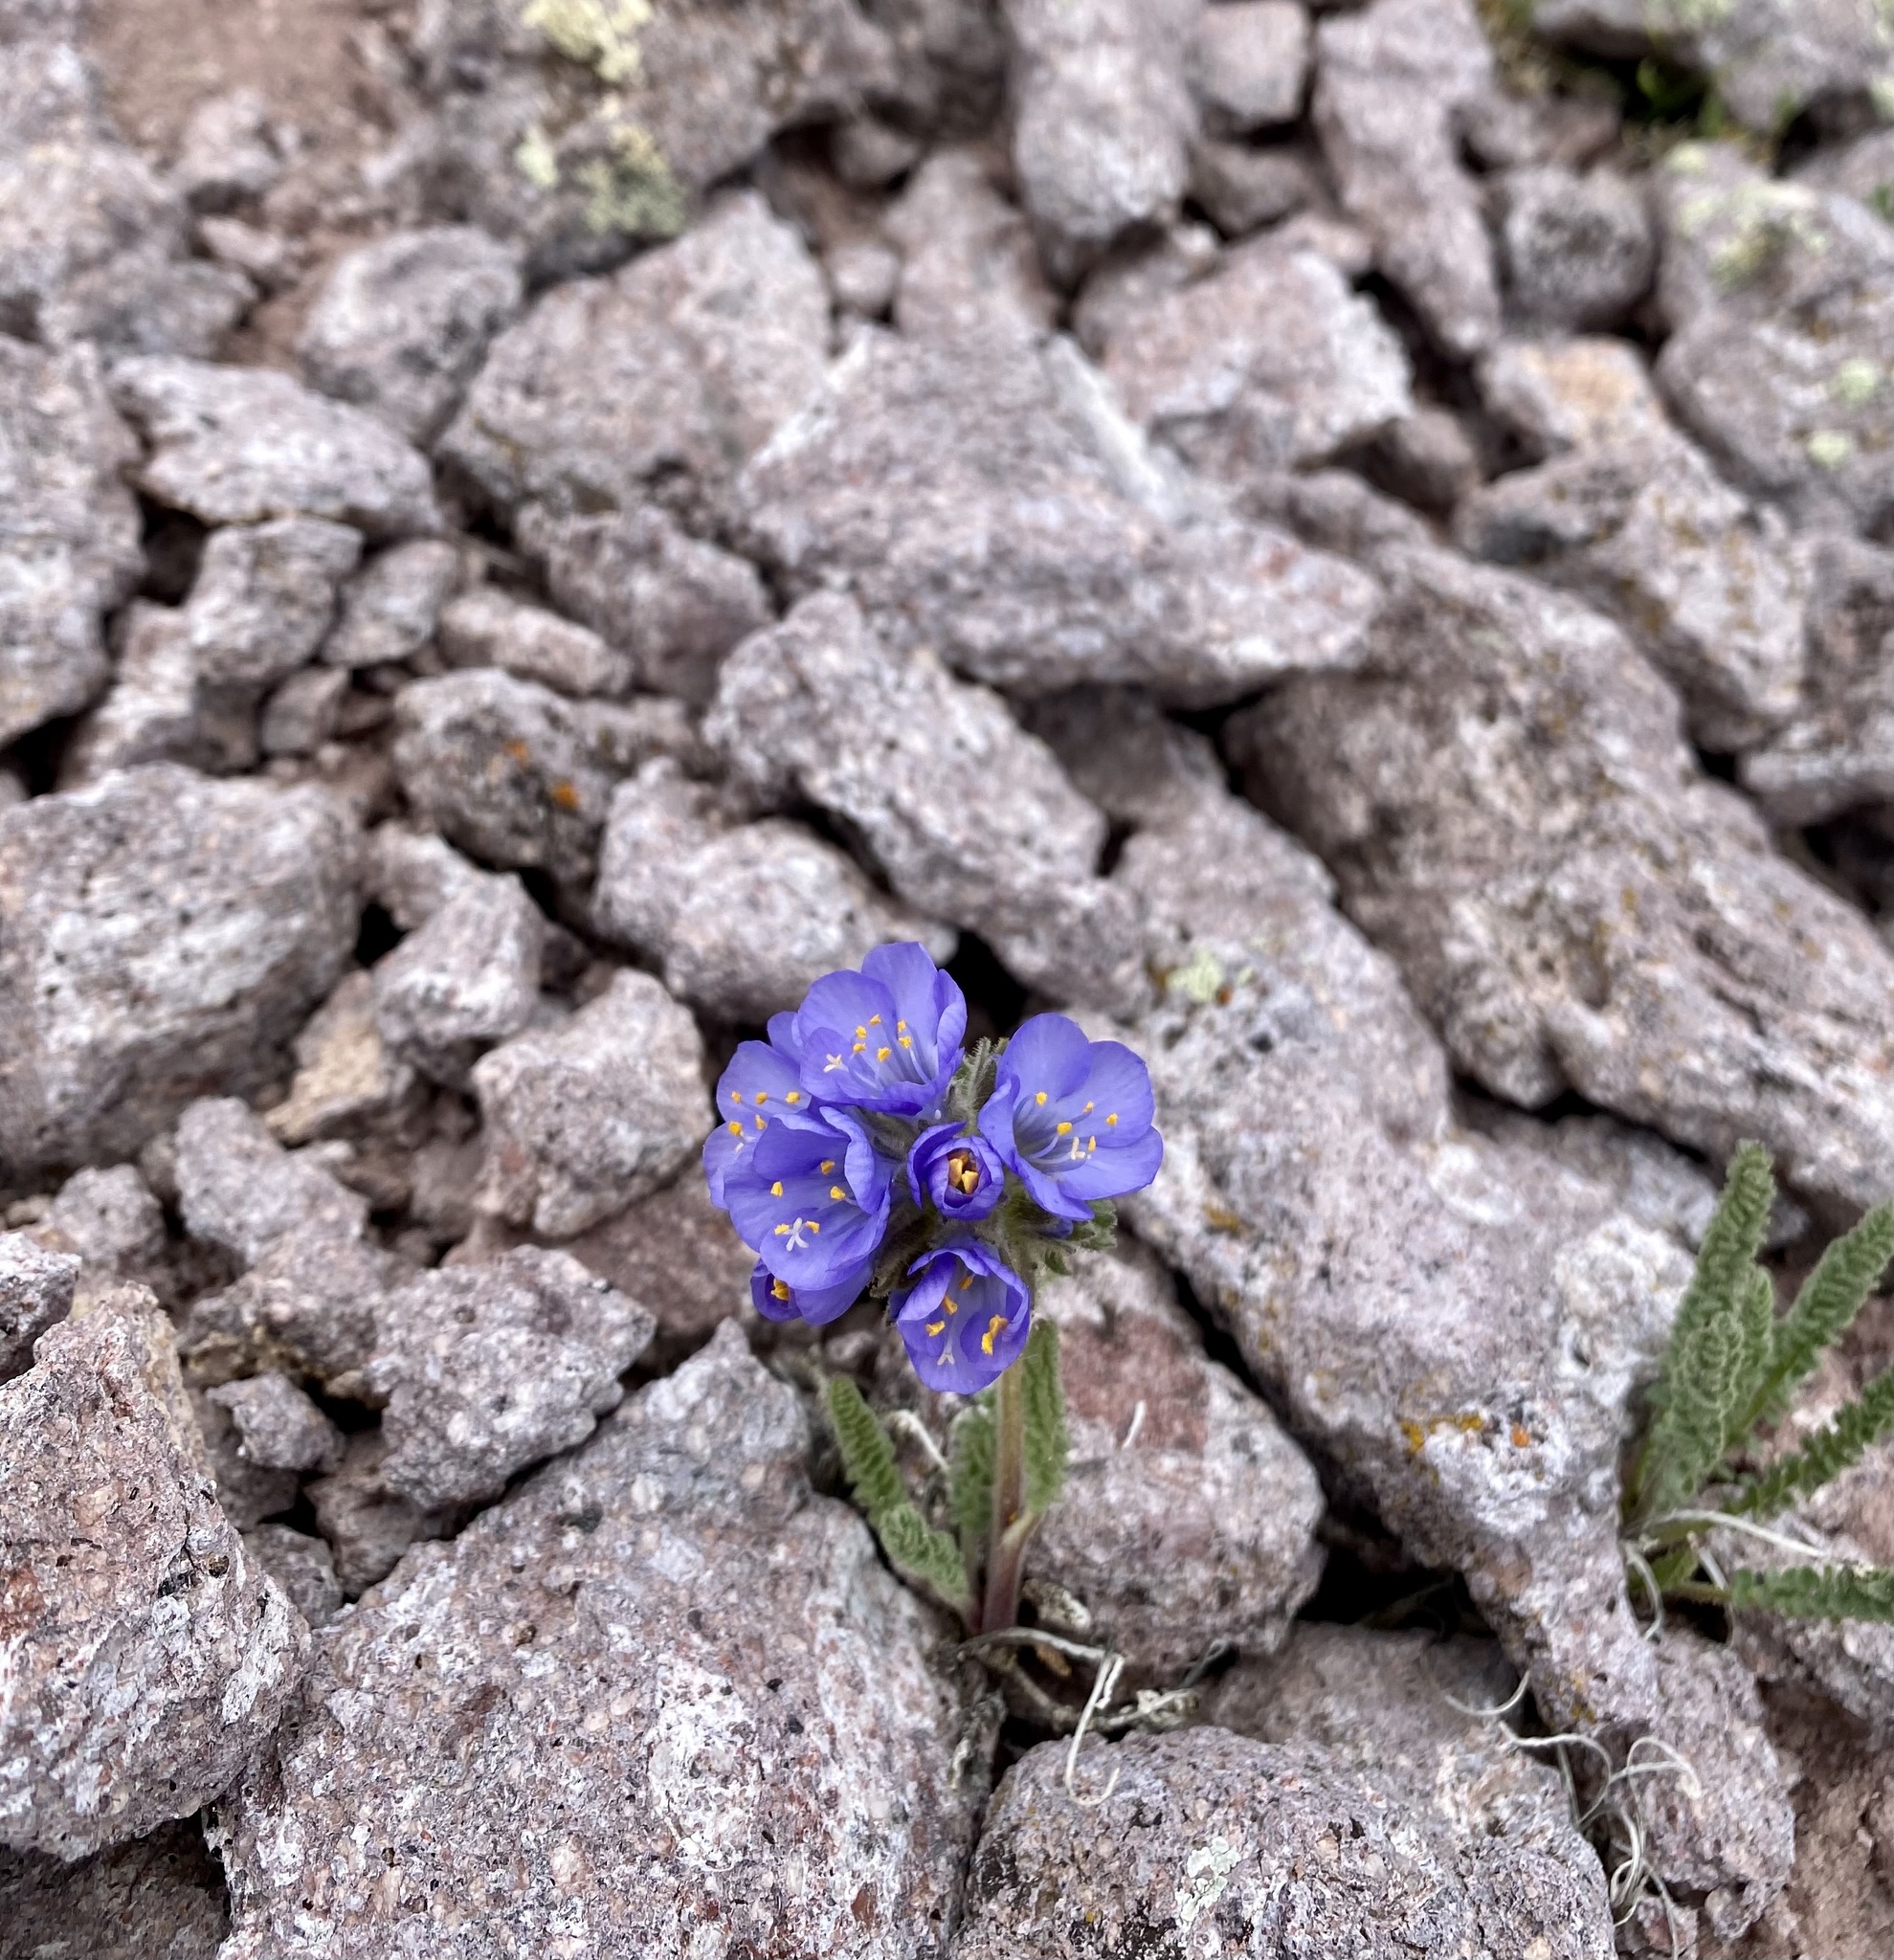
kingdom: Plantae
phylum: Tracheophyta
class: Magnoliopsida
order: Ericales
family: Polemoniaceae
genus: Polemonium
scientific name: Polemonium viscosum
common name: Skunk jacob's-ladder
